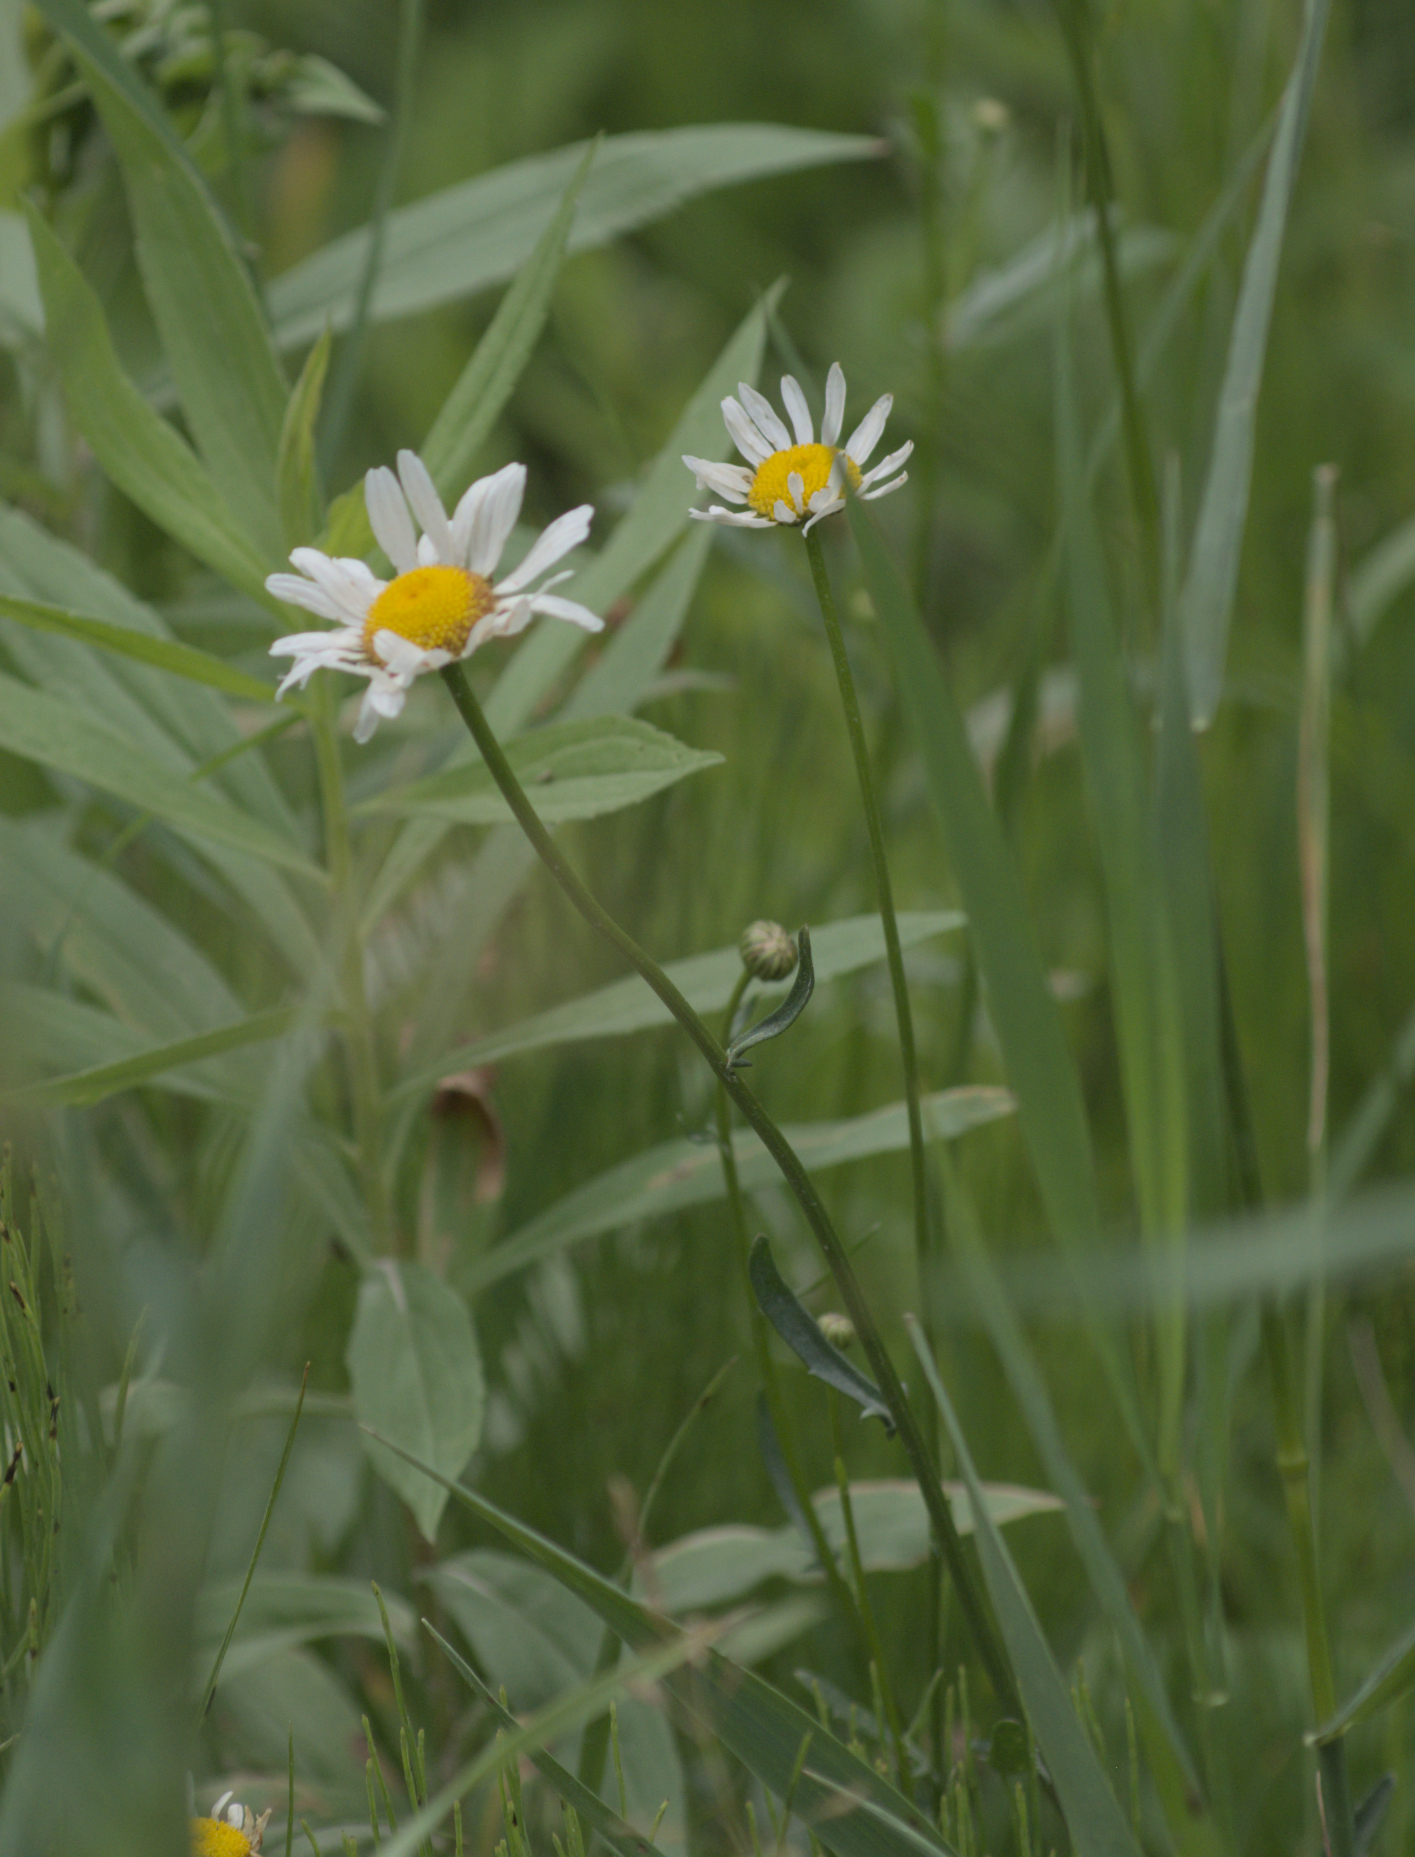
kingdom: Plantae
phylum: Tracheophyta
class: Magnoliopsida
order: Asterales
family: Asteraceae
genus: Leucanthemum
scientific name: Leucanthemum vulgare
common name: Oxeye daisy
